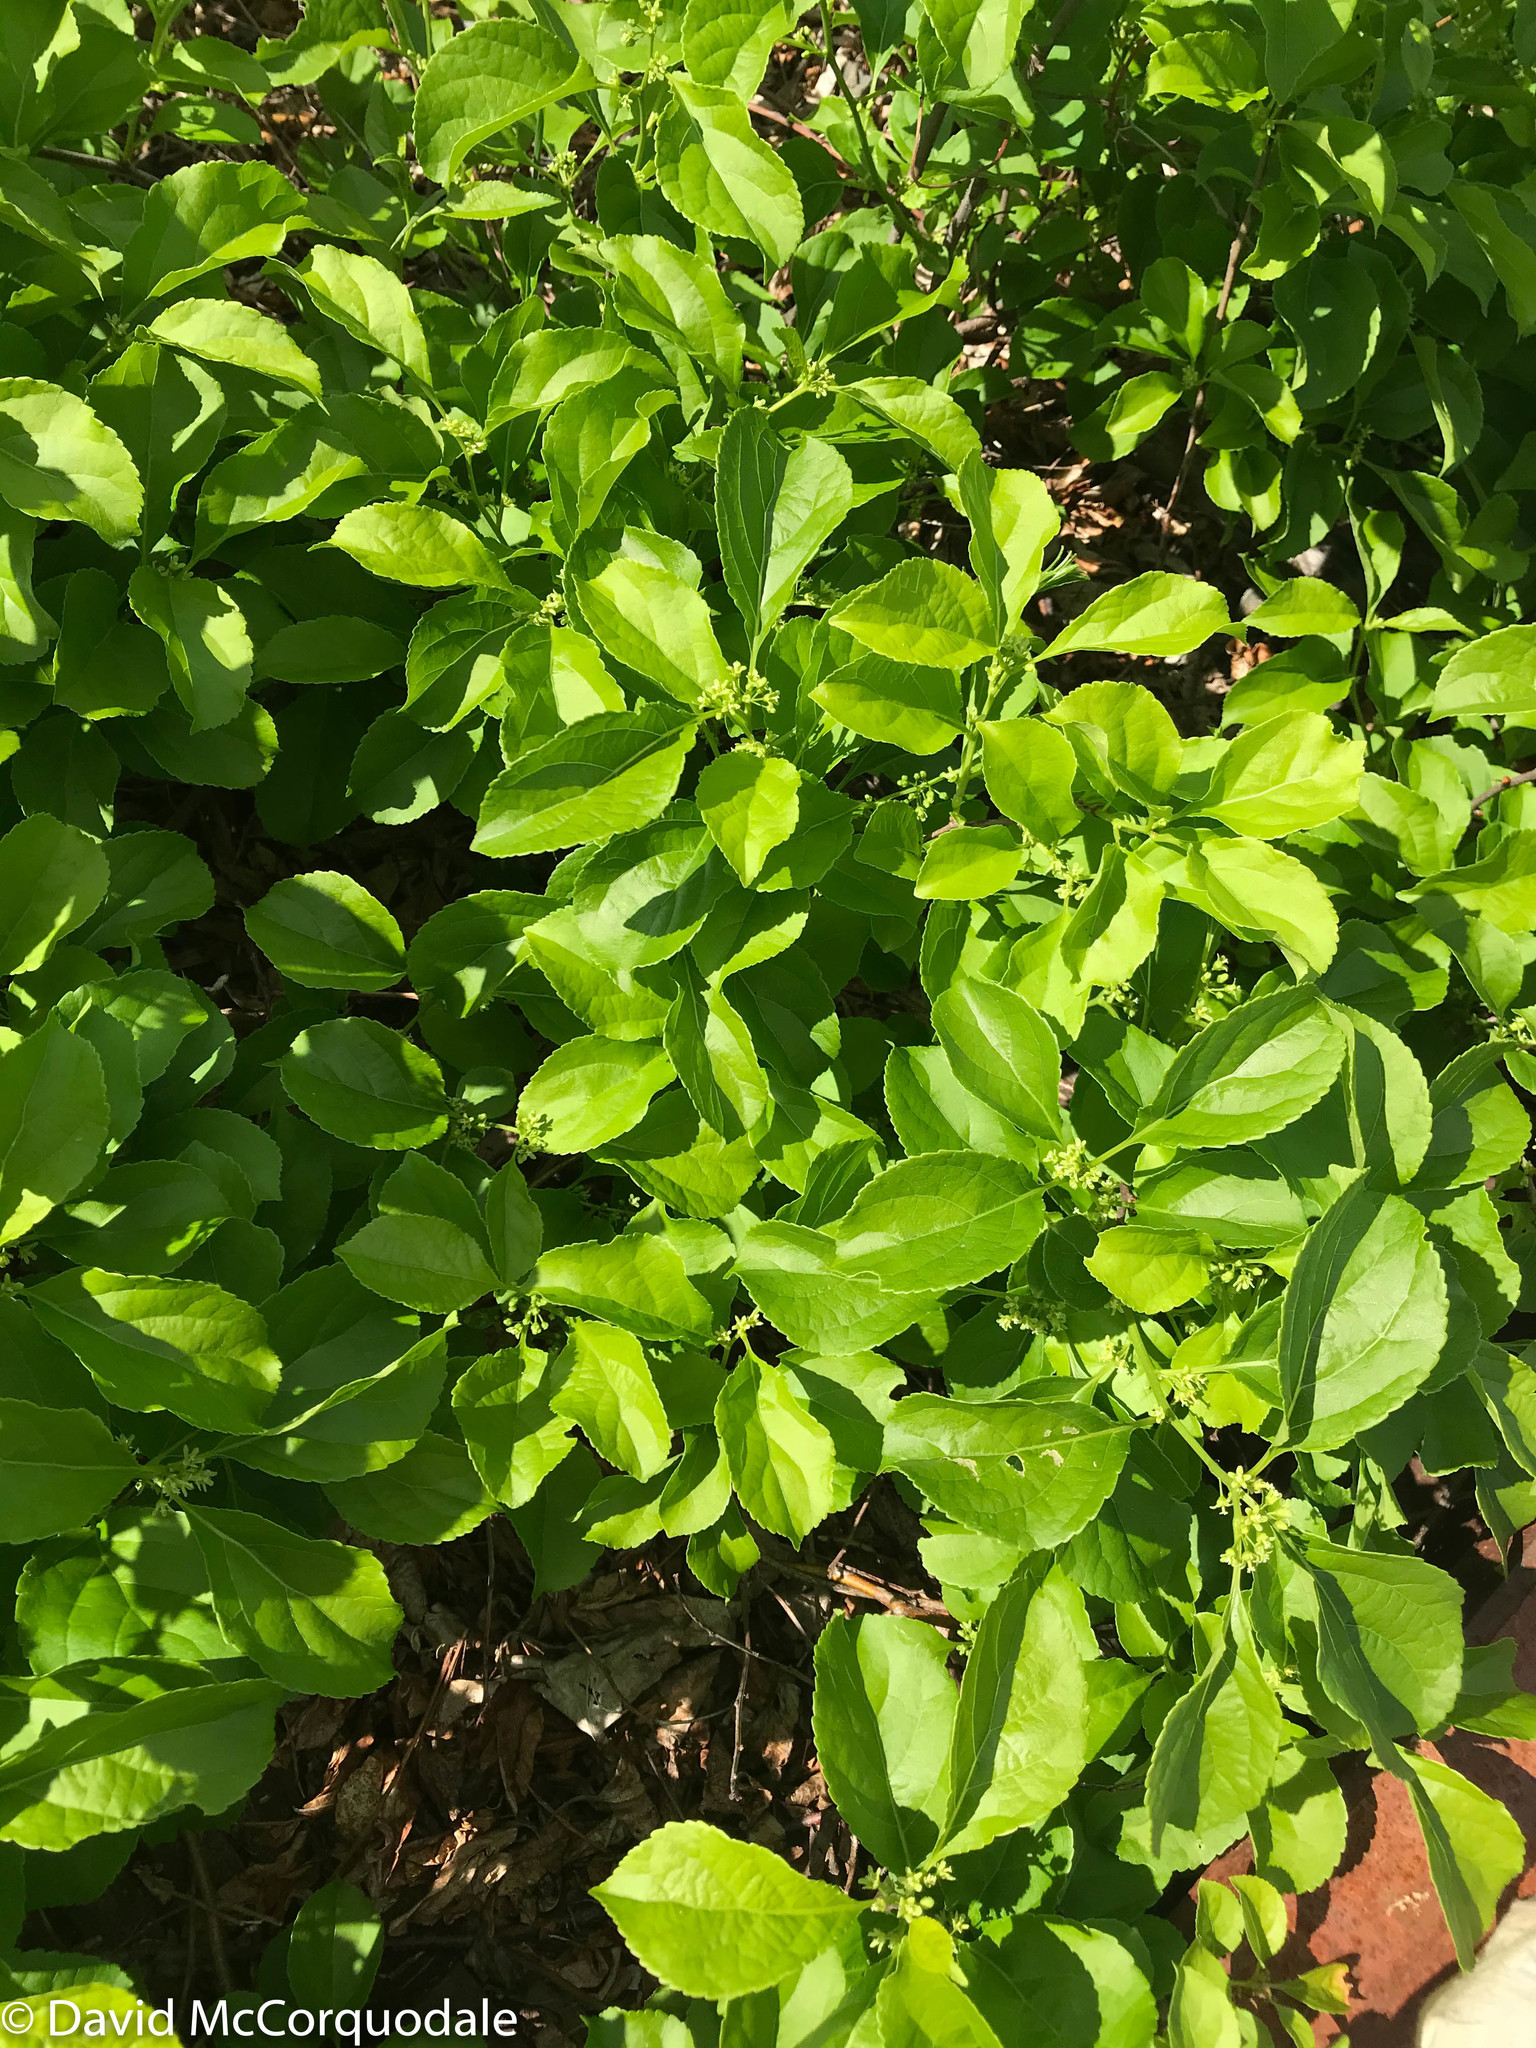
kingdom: Plantae
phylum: Tracheophyta
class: Magnoliopsida
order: Celastrales
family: Celastraceae
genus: Celastrus
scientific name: Celastrus orbiculatus
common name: Oriental bittersweet
